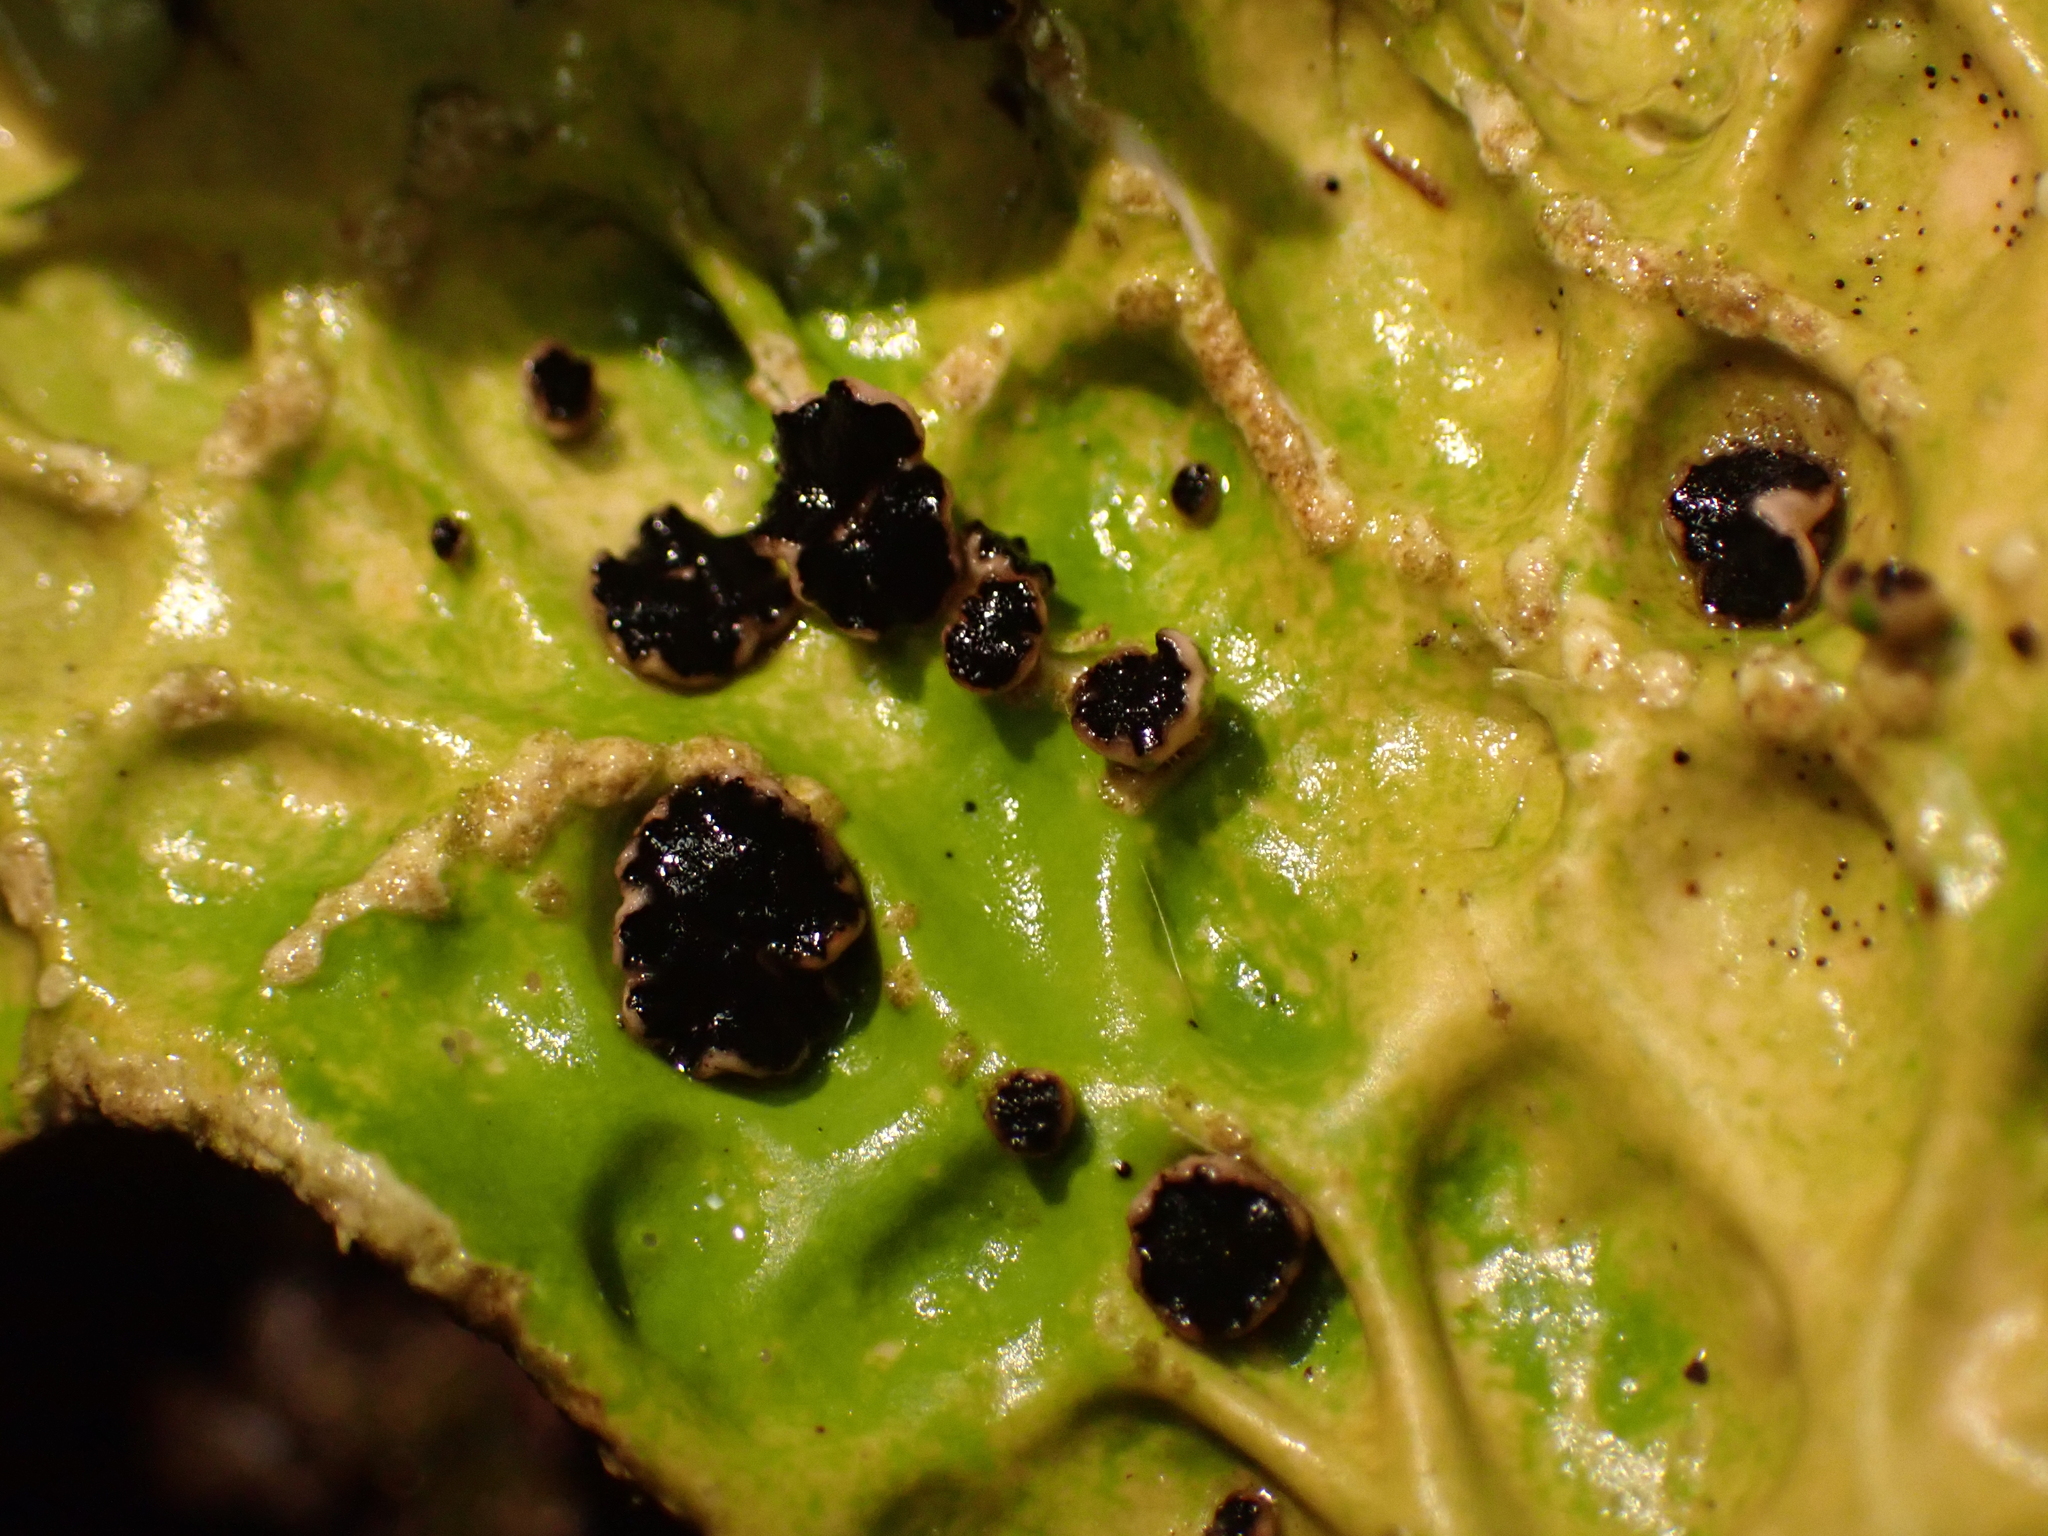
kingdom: Fungi
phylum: Ascomycota
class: Arthoniomycetes
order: Arthoniales
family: Lecanographaceae
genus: Plectocarpon
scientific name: Plectocarpon lichenum
